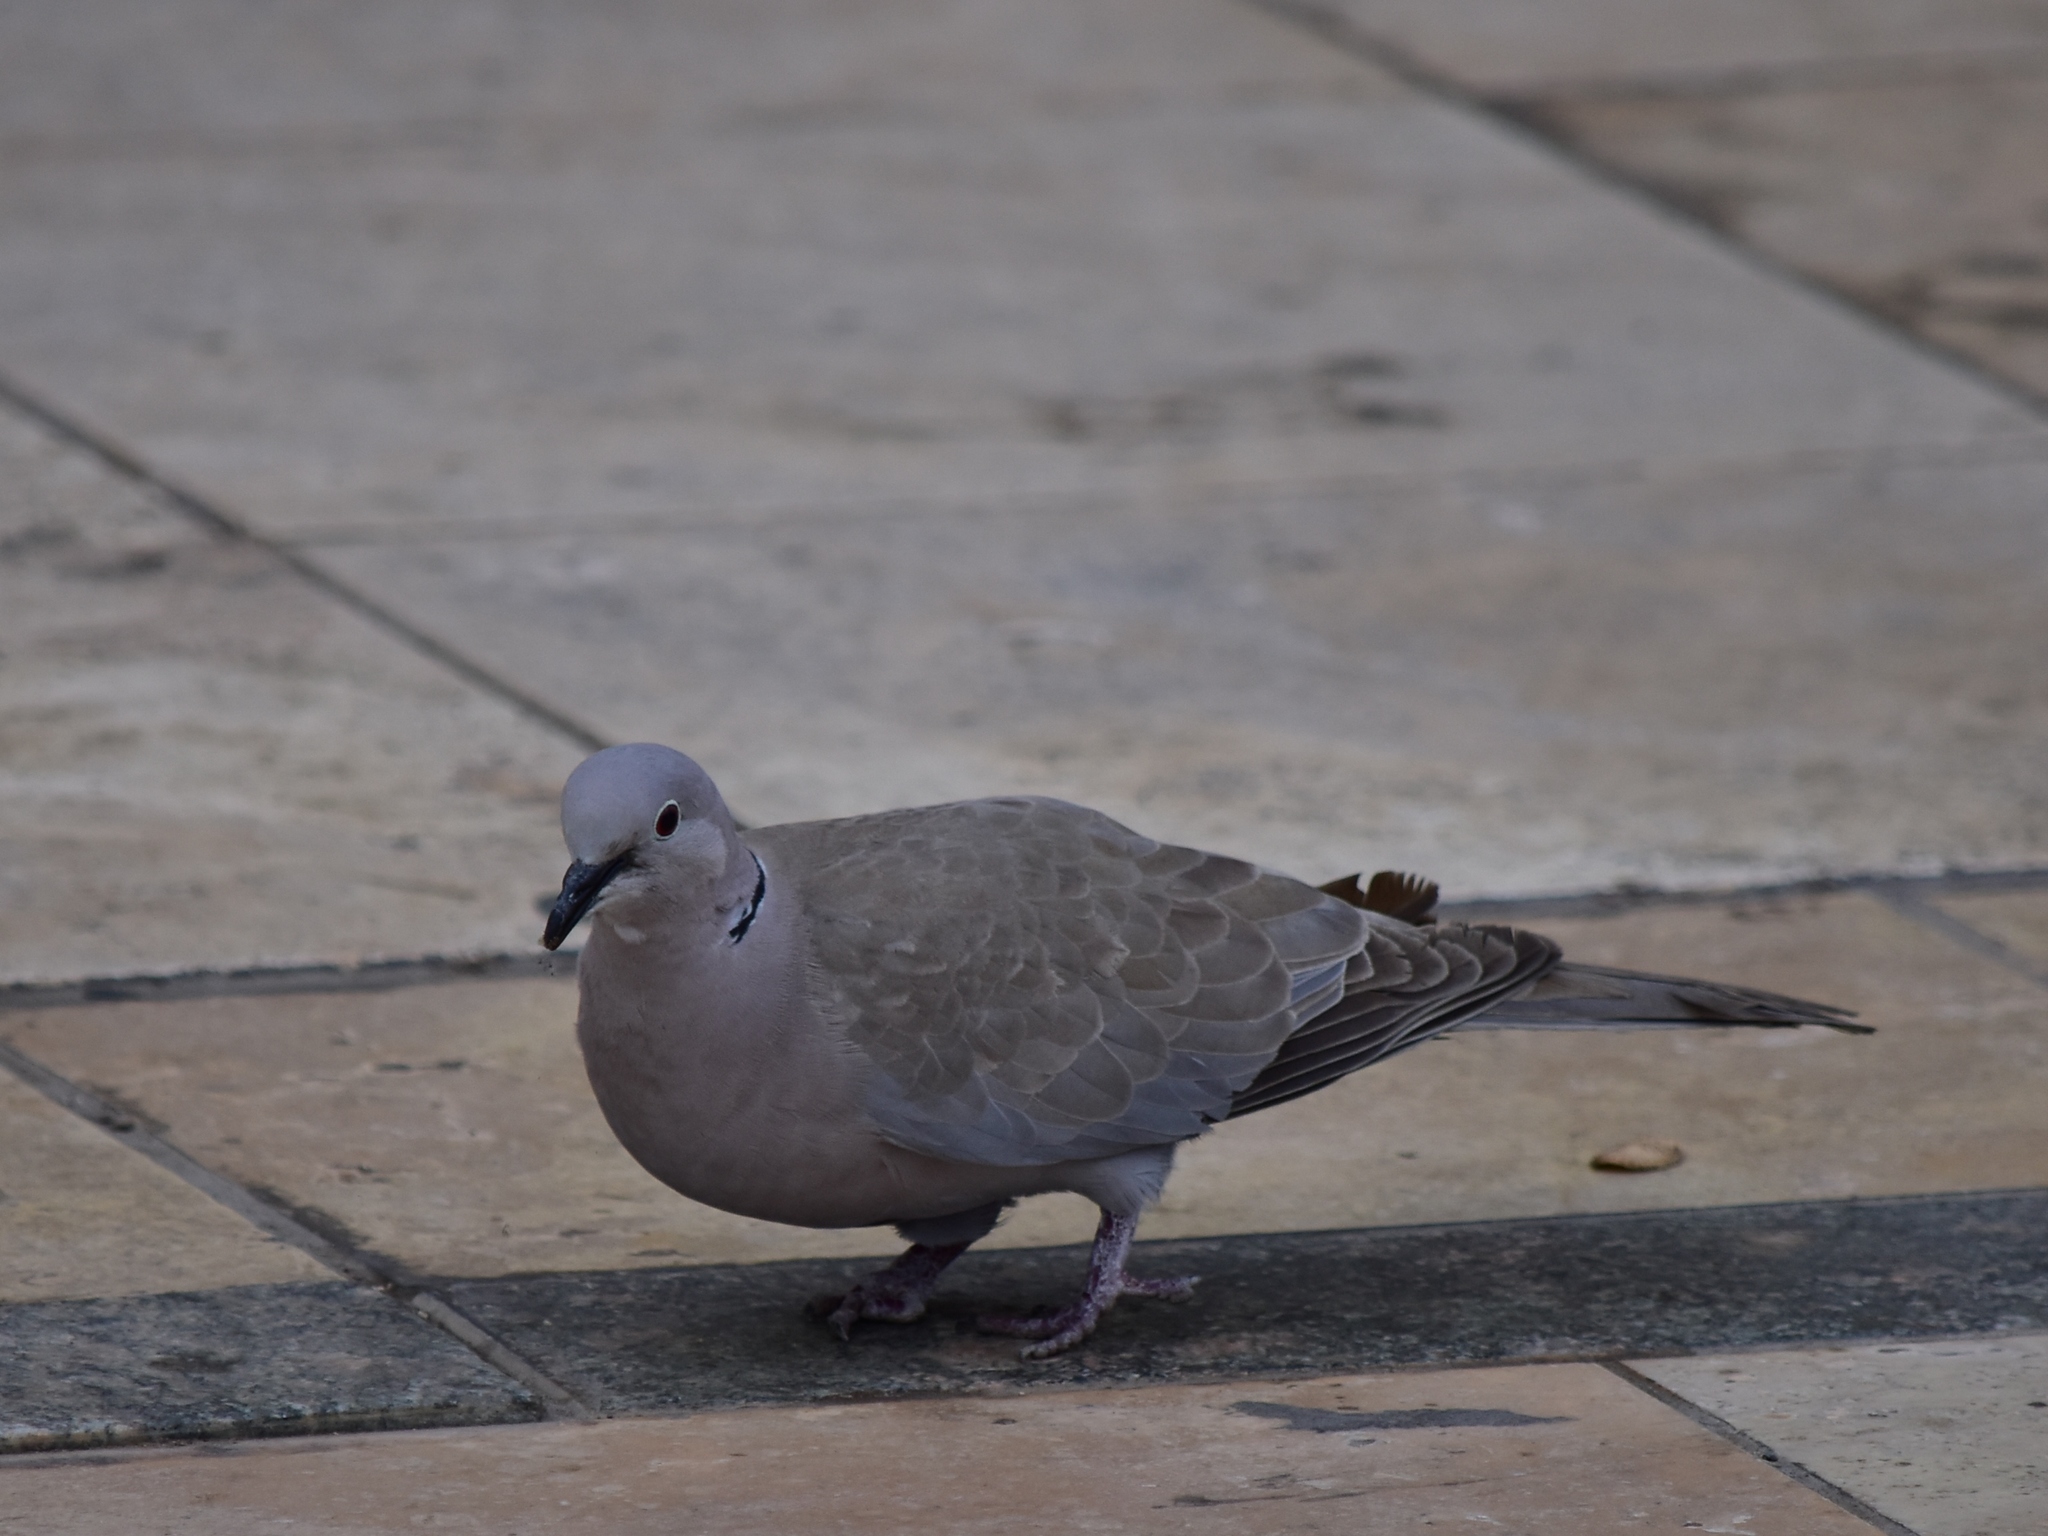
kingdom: Animalia
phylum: Chordata
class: Aves
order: Columbiformes
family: Columbidae
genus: Streptopelia
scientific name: Streptopelia decaocto
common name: Eurasian collared dove
